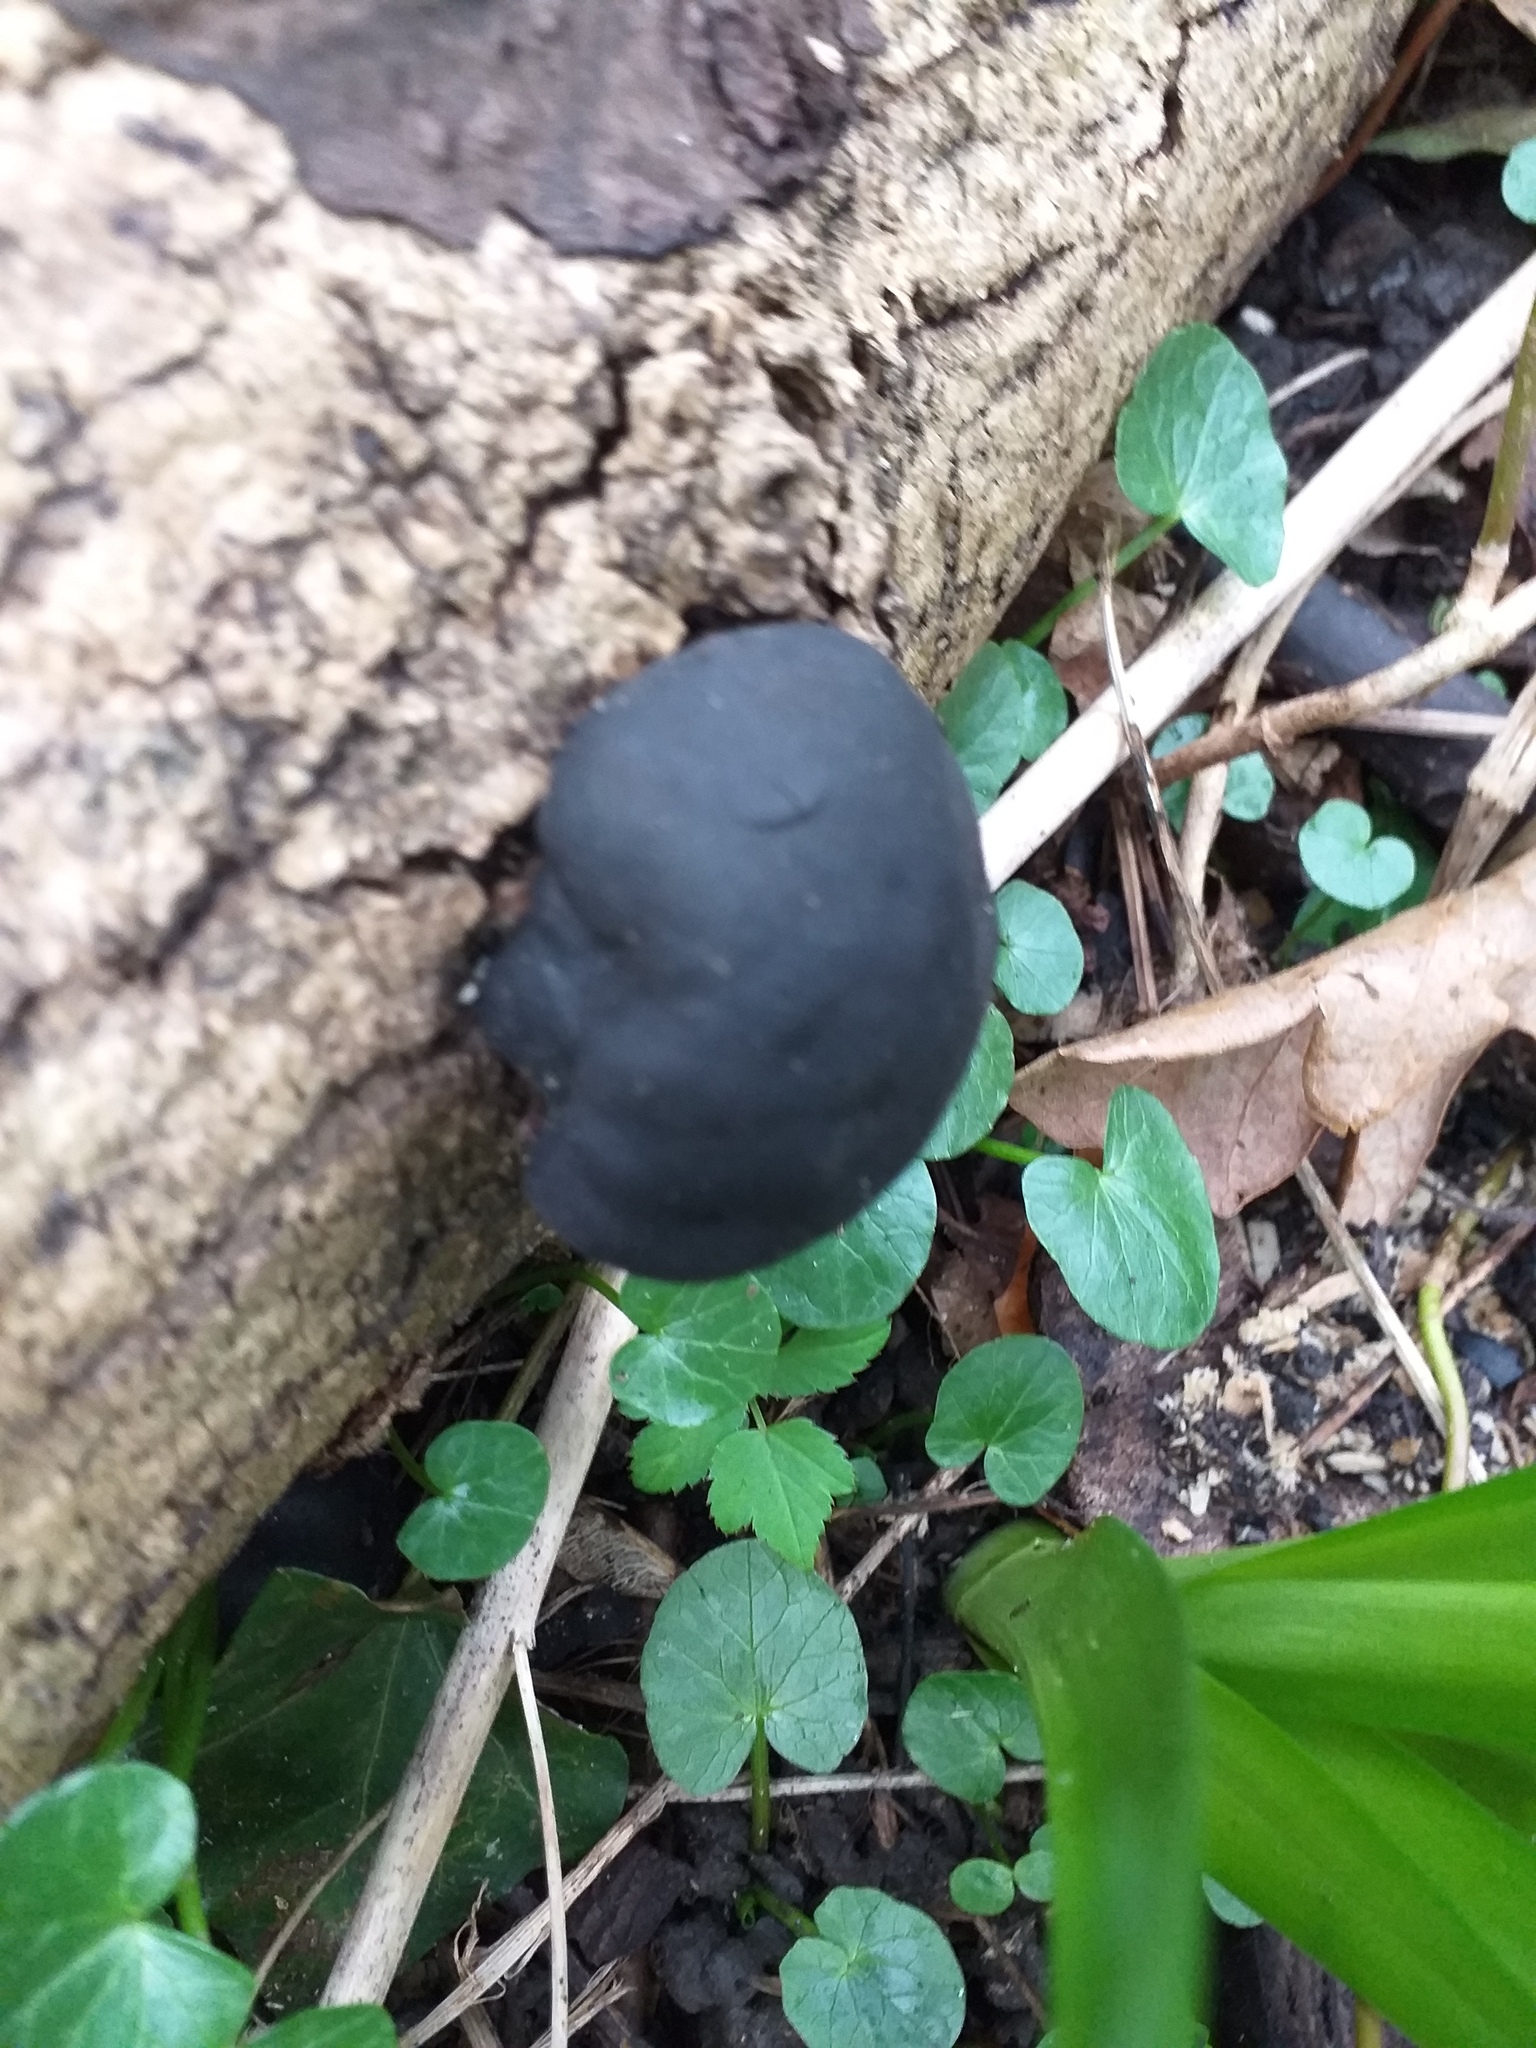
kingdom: Fungi
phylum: Ascomycota
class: Sordariomycetes
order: Xylariales
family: Hypoxylaceae
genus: Daldinia
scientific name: Daldinia concentrica
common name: Cramp balls
